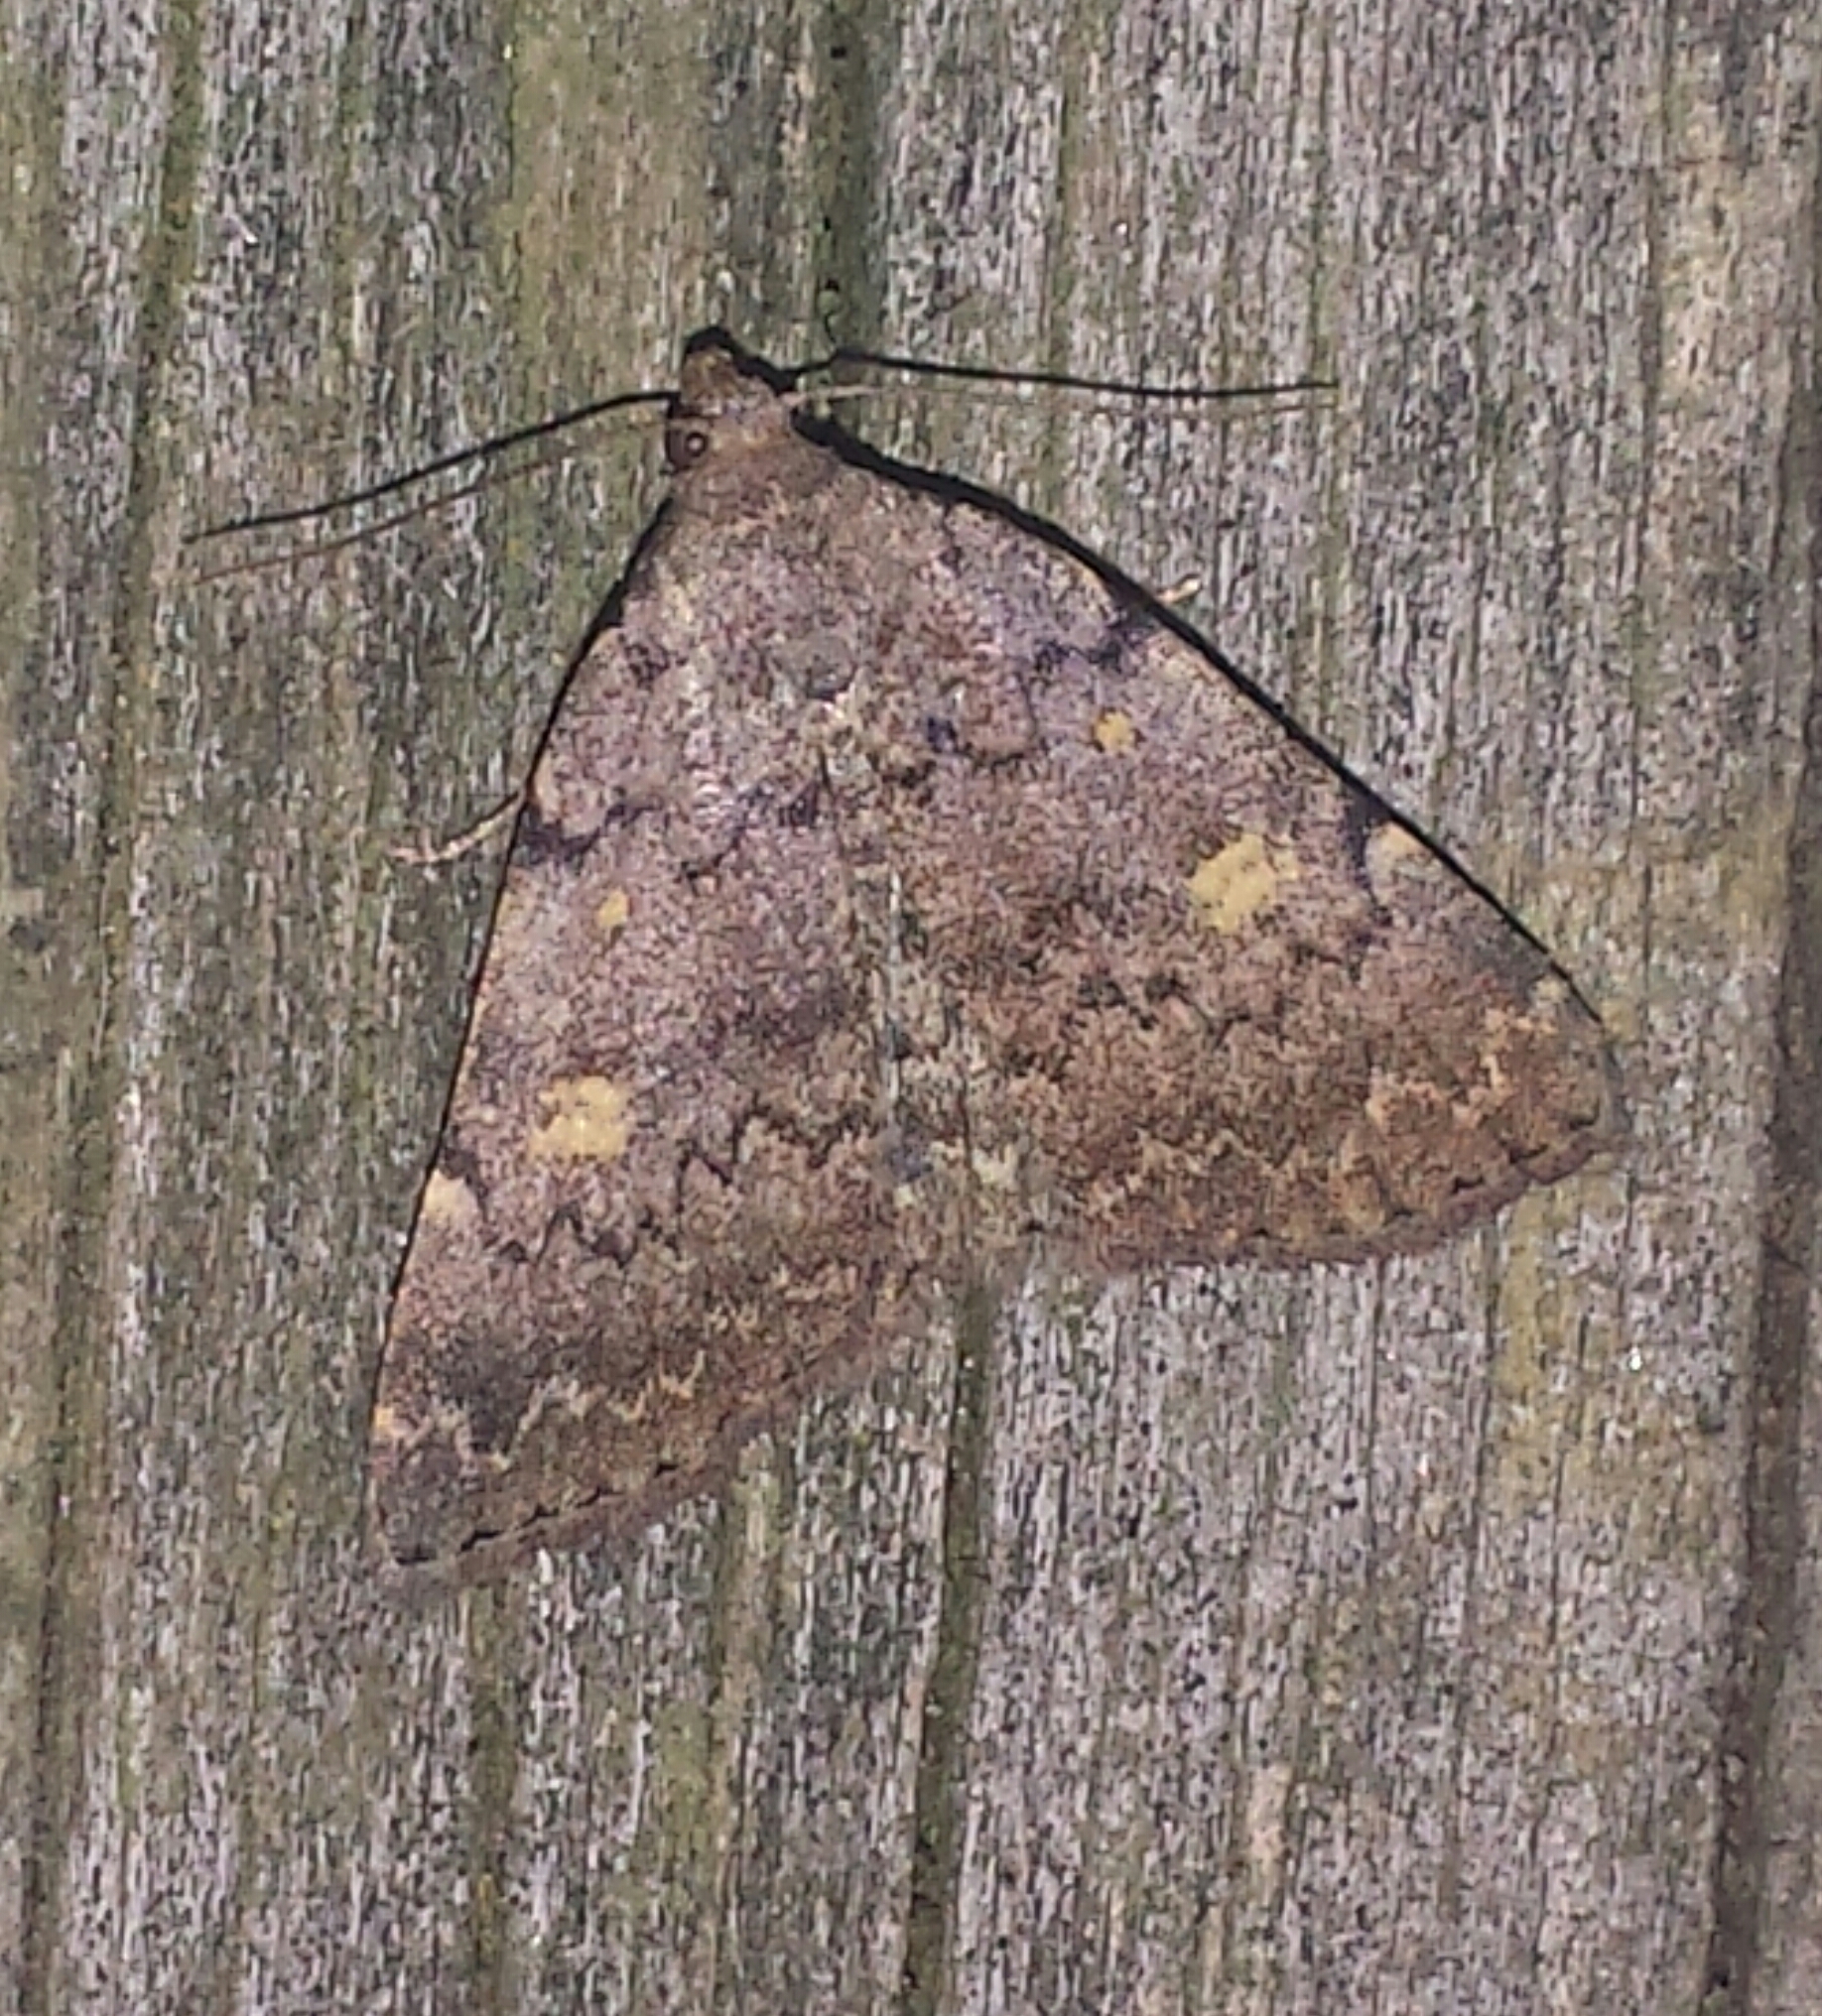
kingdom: Animalia
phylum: Arthropoda
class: Insecta
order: Lepidoptera
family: Erebidae
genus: Idia
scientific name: Idia aemula
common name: Common idia moth
